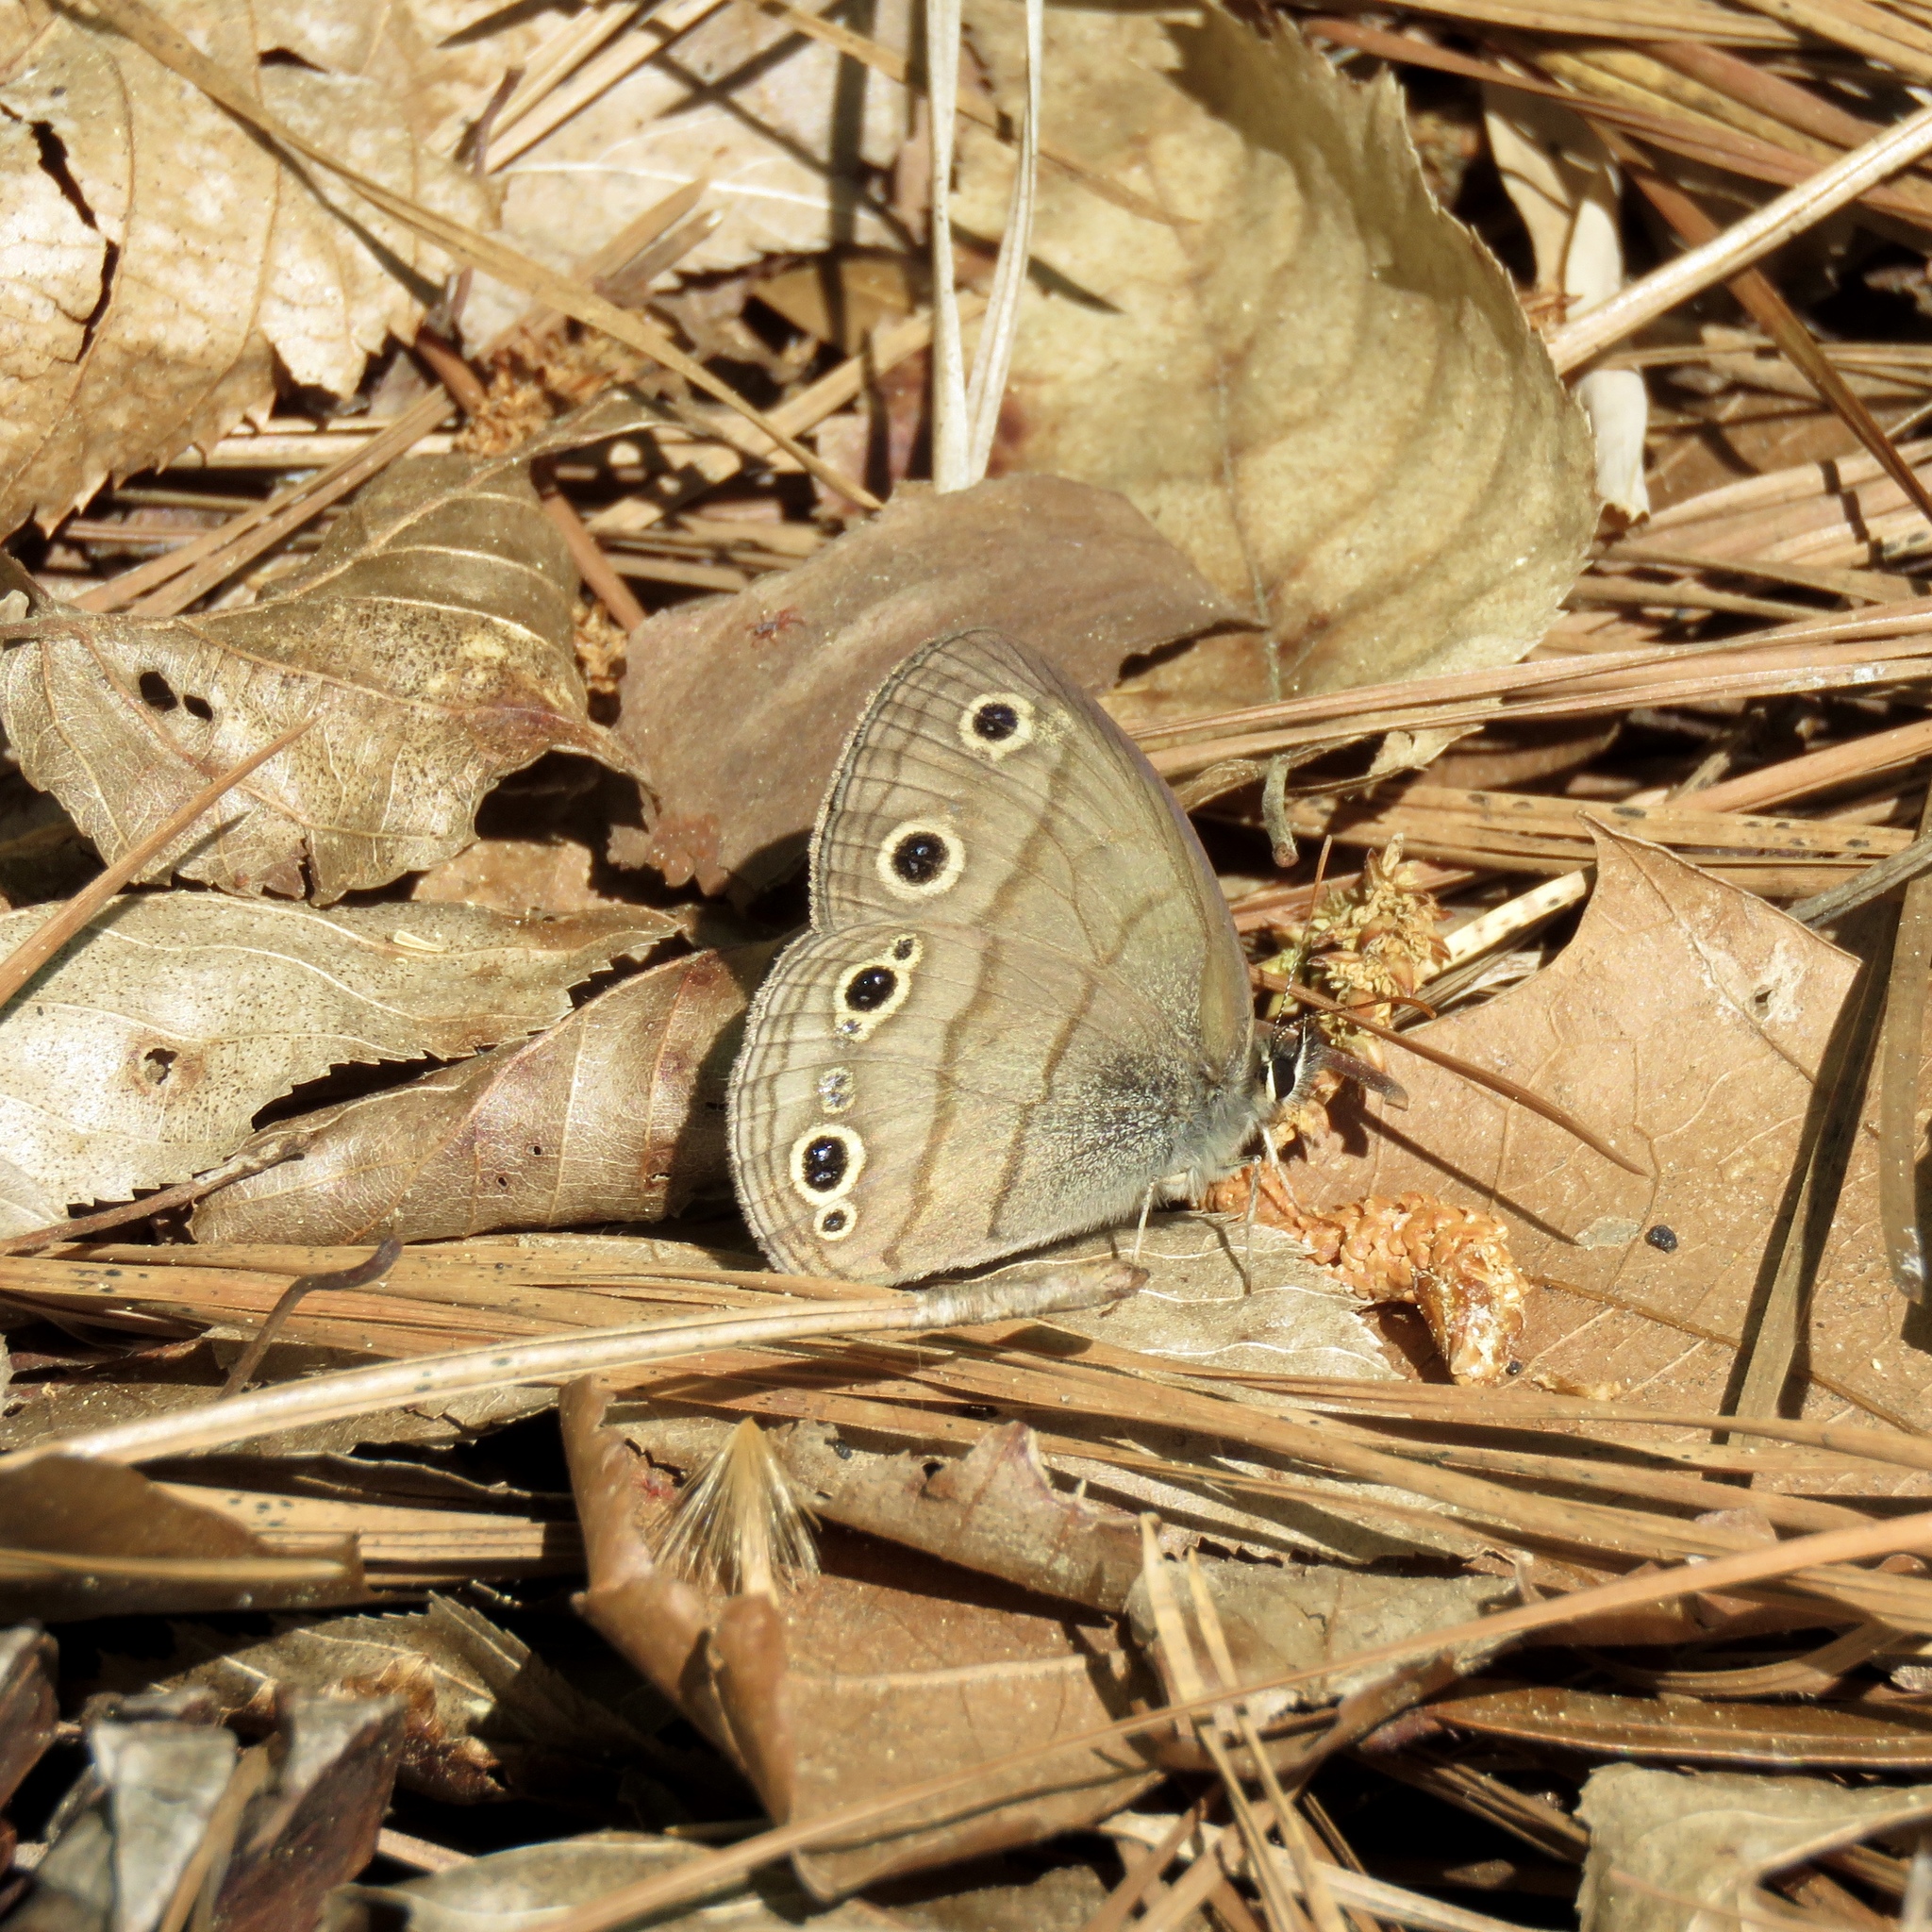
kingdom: Animalia
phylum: Arthropoda
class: Insecta
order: Lepidoptera
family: Nymphalidae
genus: Euptychia
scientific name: Euptychia cymela
